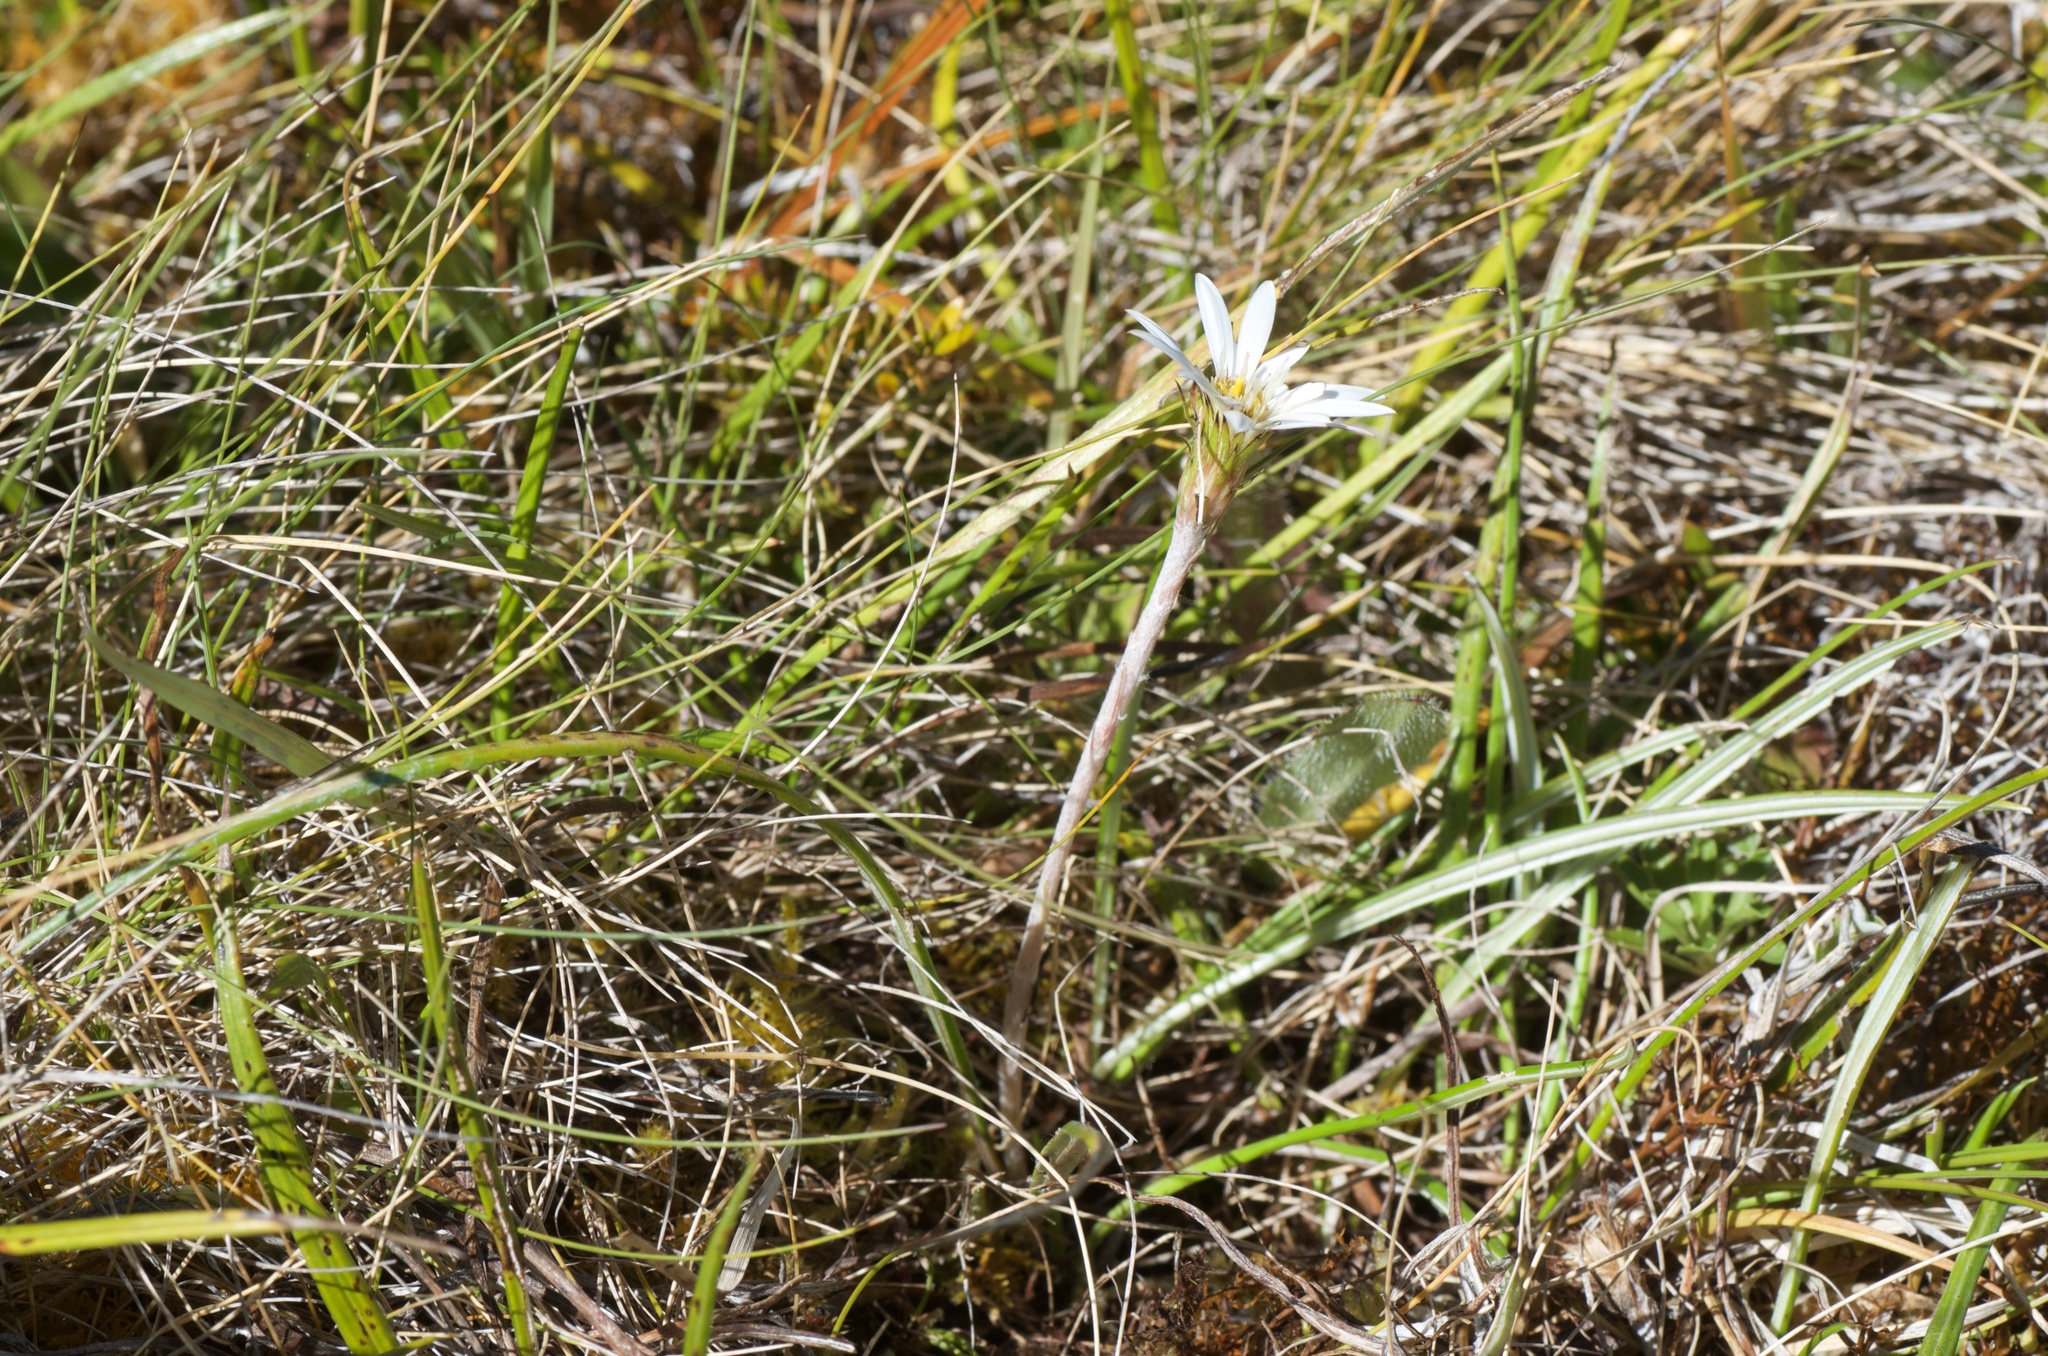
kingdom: Plantae
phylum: Tracheophyta
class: Magnoliopsida
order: Asterales
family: Asteraceae
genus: Celmisia
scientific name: Celmisia gracilenta
